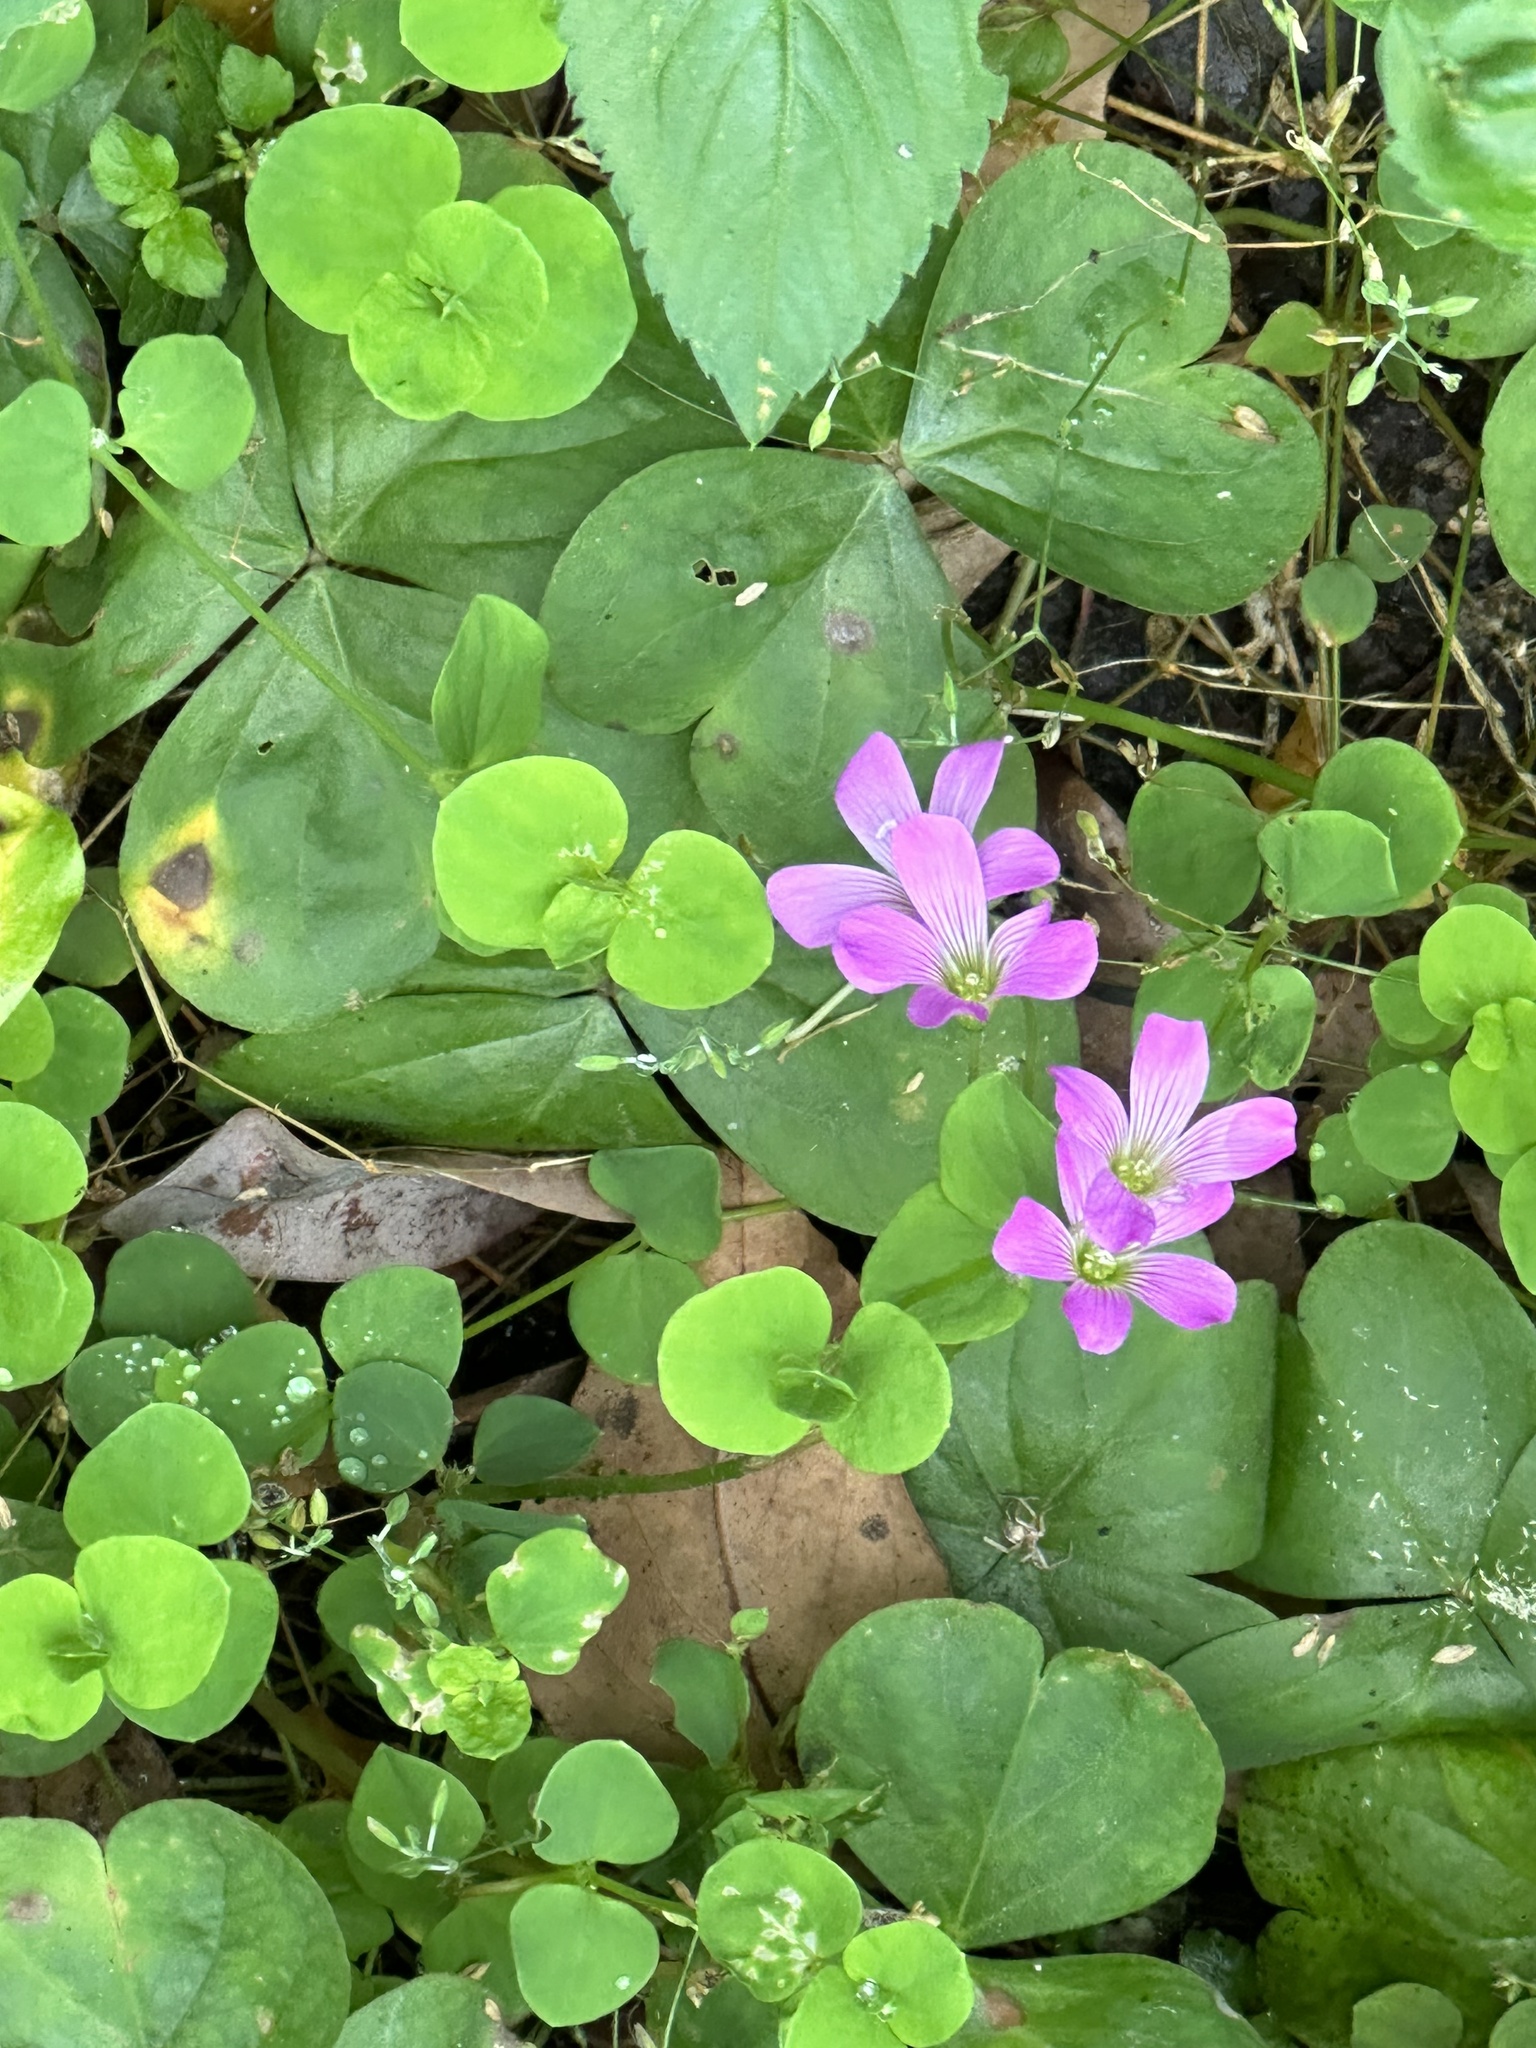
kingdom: Plantae
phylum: Tracheophyta
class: Magnoliopsida
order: Oxalidales
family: Oxalidaceae
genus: Oxalis
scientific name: Oxalis debilis
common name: Large-flowered pink-sorrel
